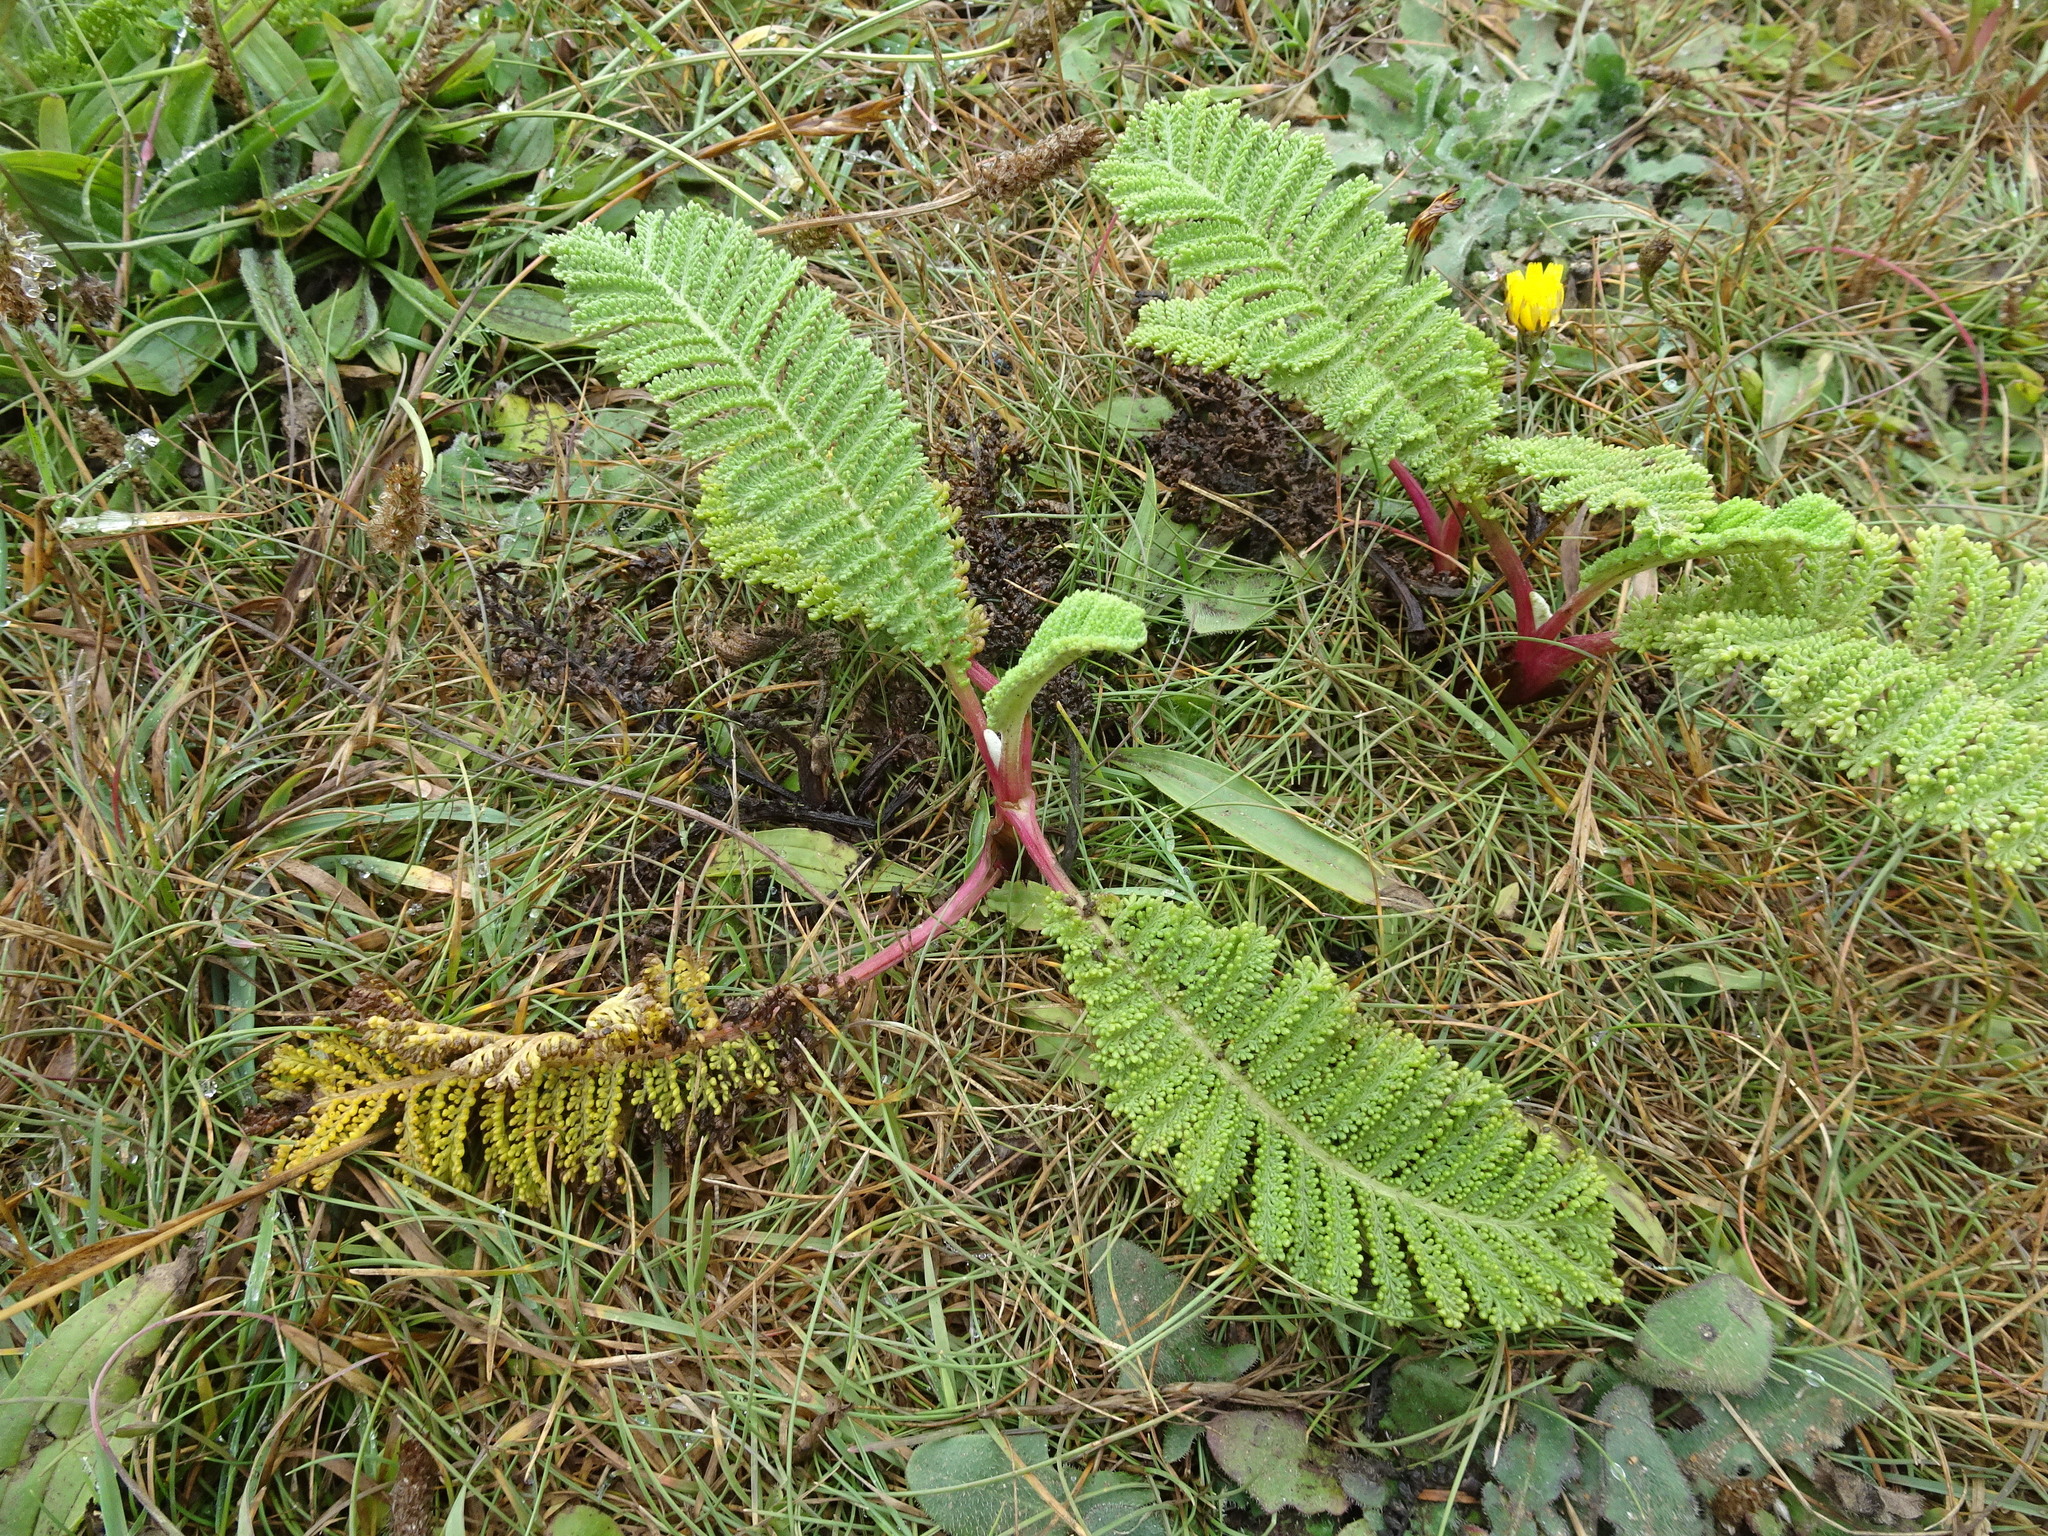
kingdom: Plantae
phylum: Tracheophyta
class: Magnoliopsida
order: Asterales
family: Asteraceae
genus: Tanacetum
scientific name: Tanacetum bipinnatum
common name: Dwarf tansy
